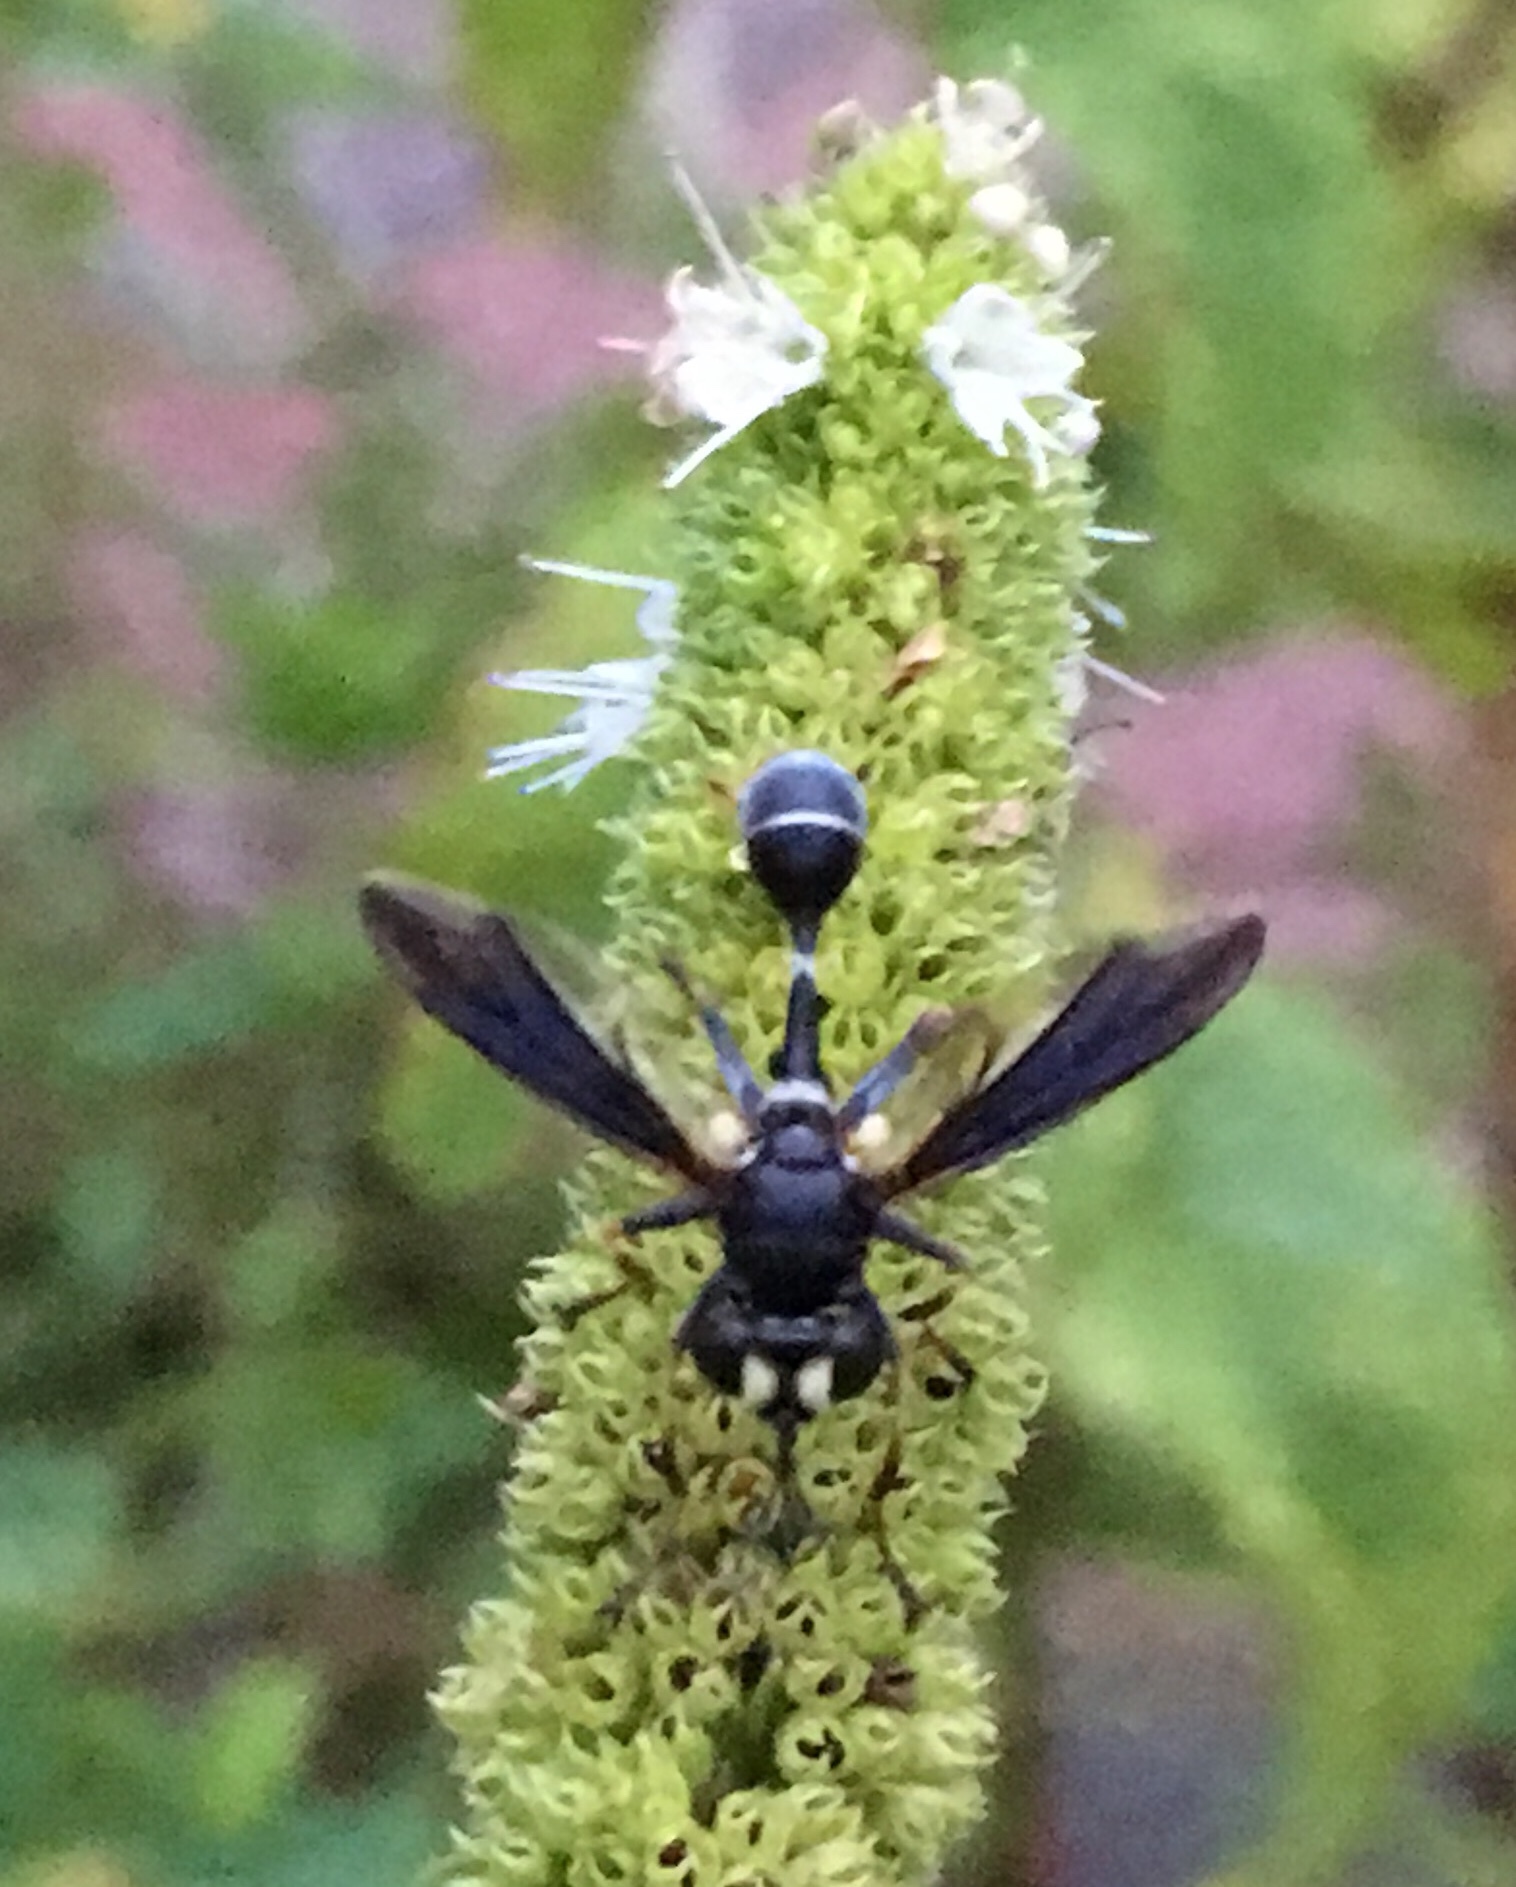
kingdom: Animalia
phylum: Arthropoda
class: Insecta
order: Diptera
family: Conopidae
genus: Physocephala
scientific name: Physocephala tibialis
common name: Common eastern physocephala
